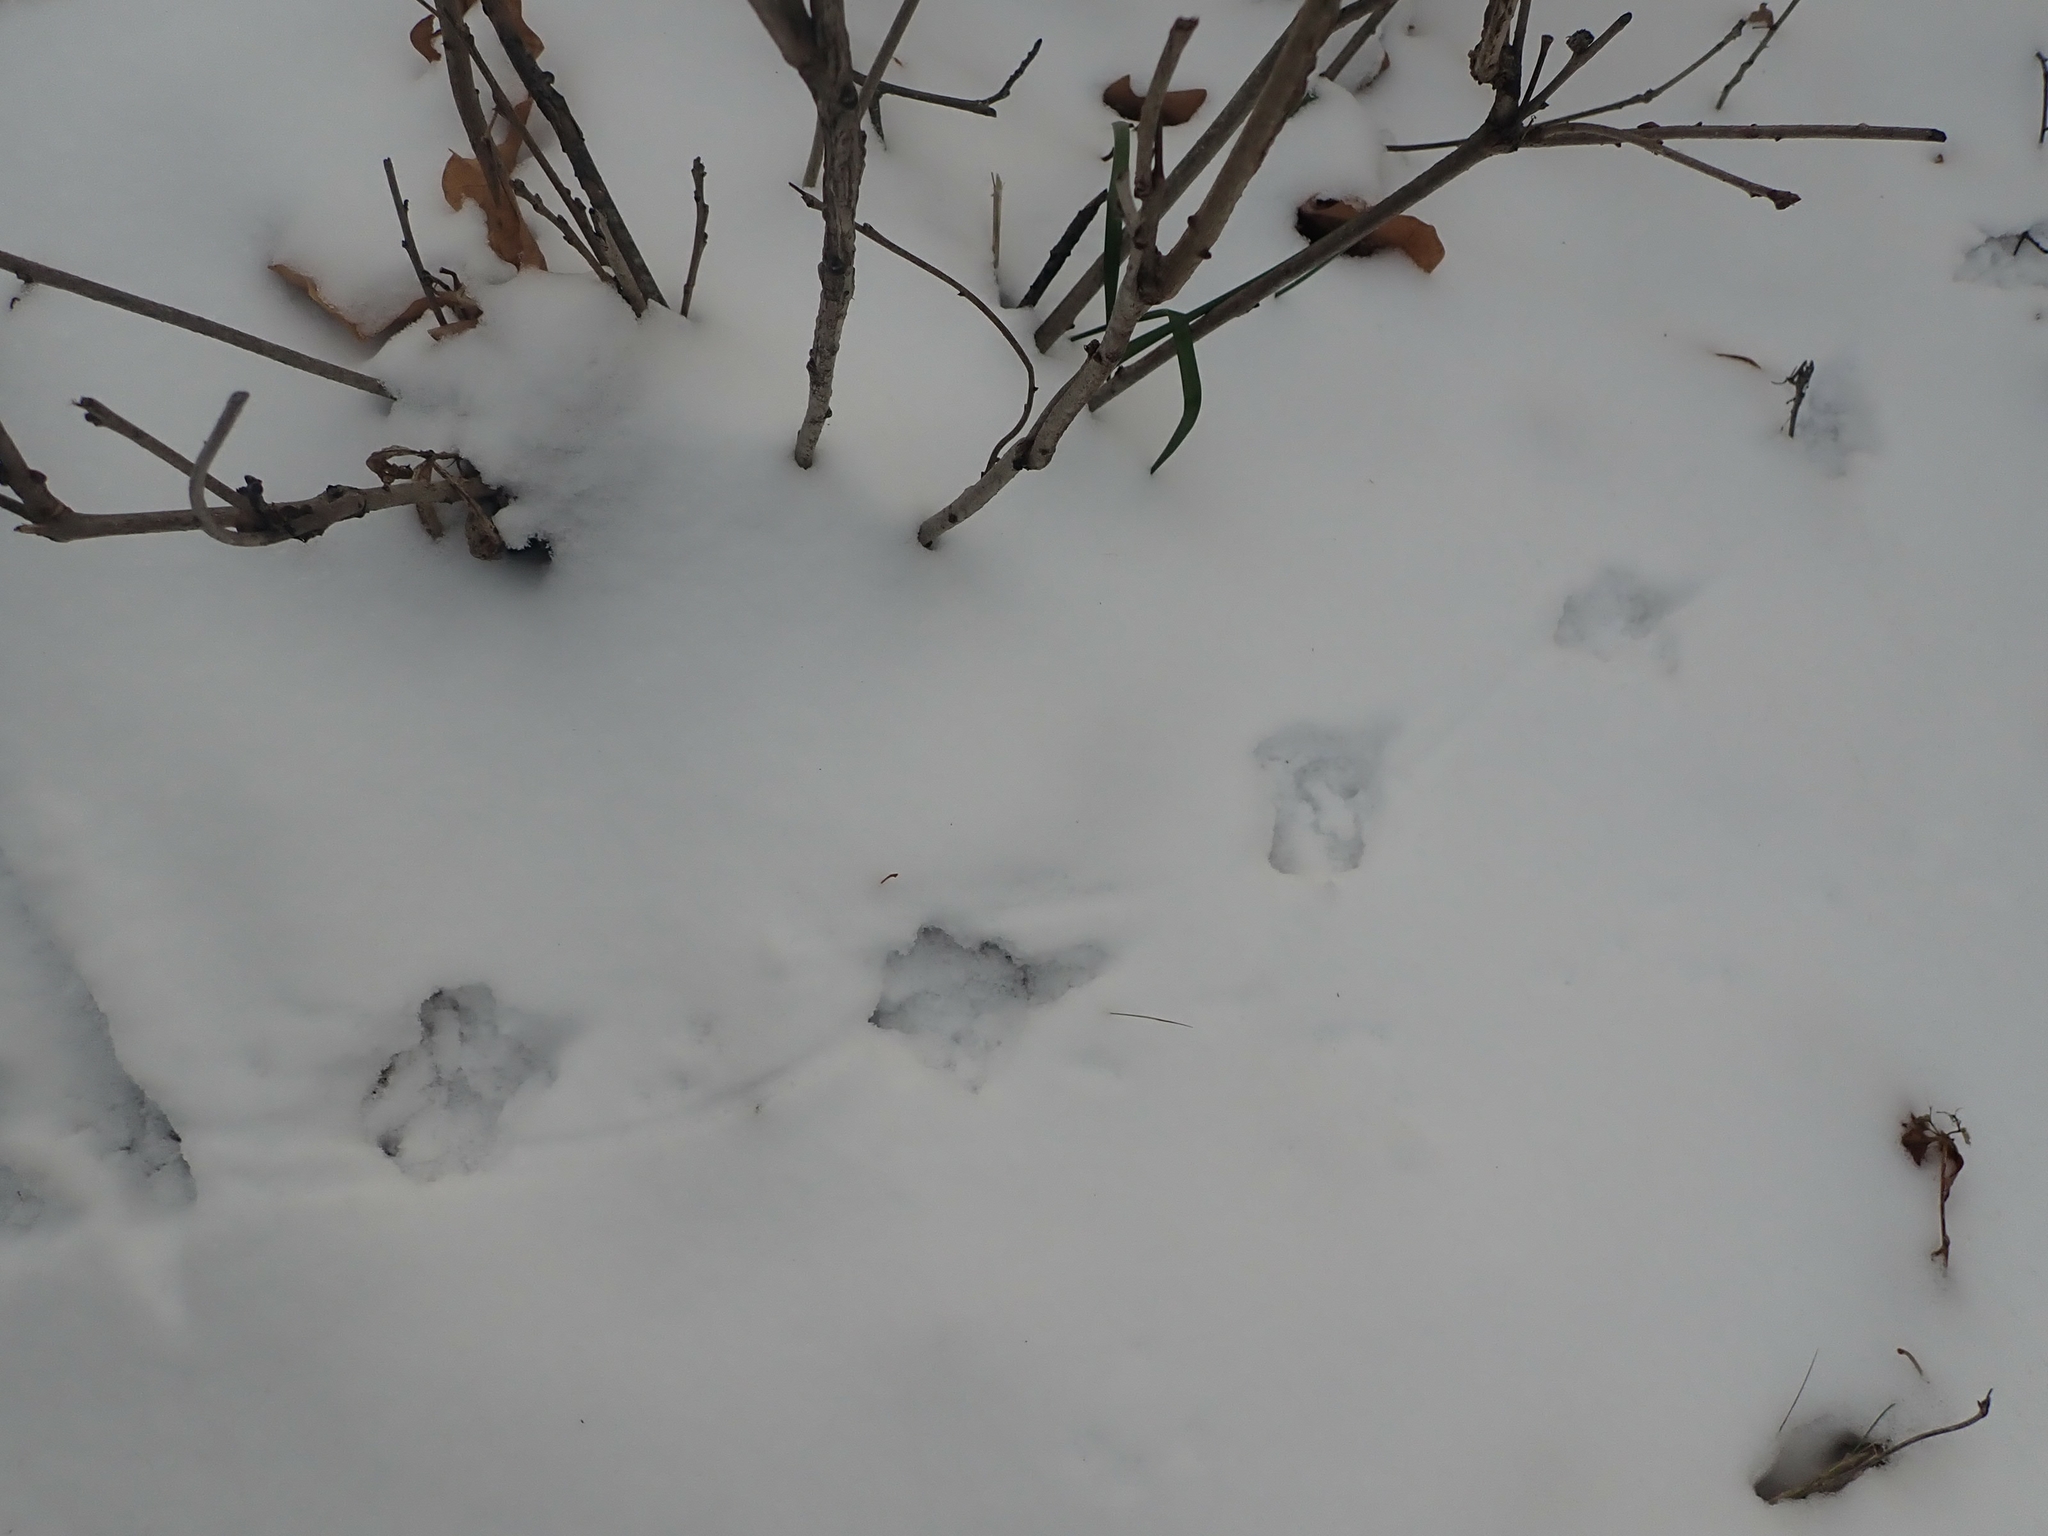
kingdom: Animalia
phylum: Chordata
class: Aves
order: Galliformes
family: Phasianidae
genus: Bonasa
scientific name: Bonasa umbellus
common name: Ruffed grouse
